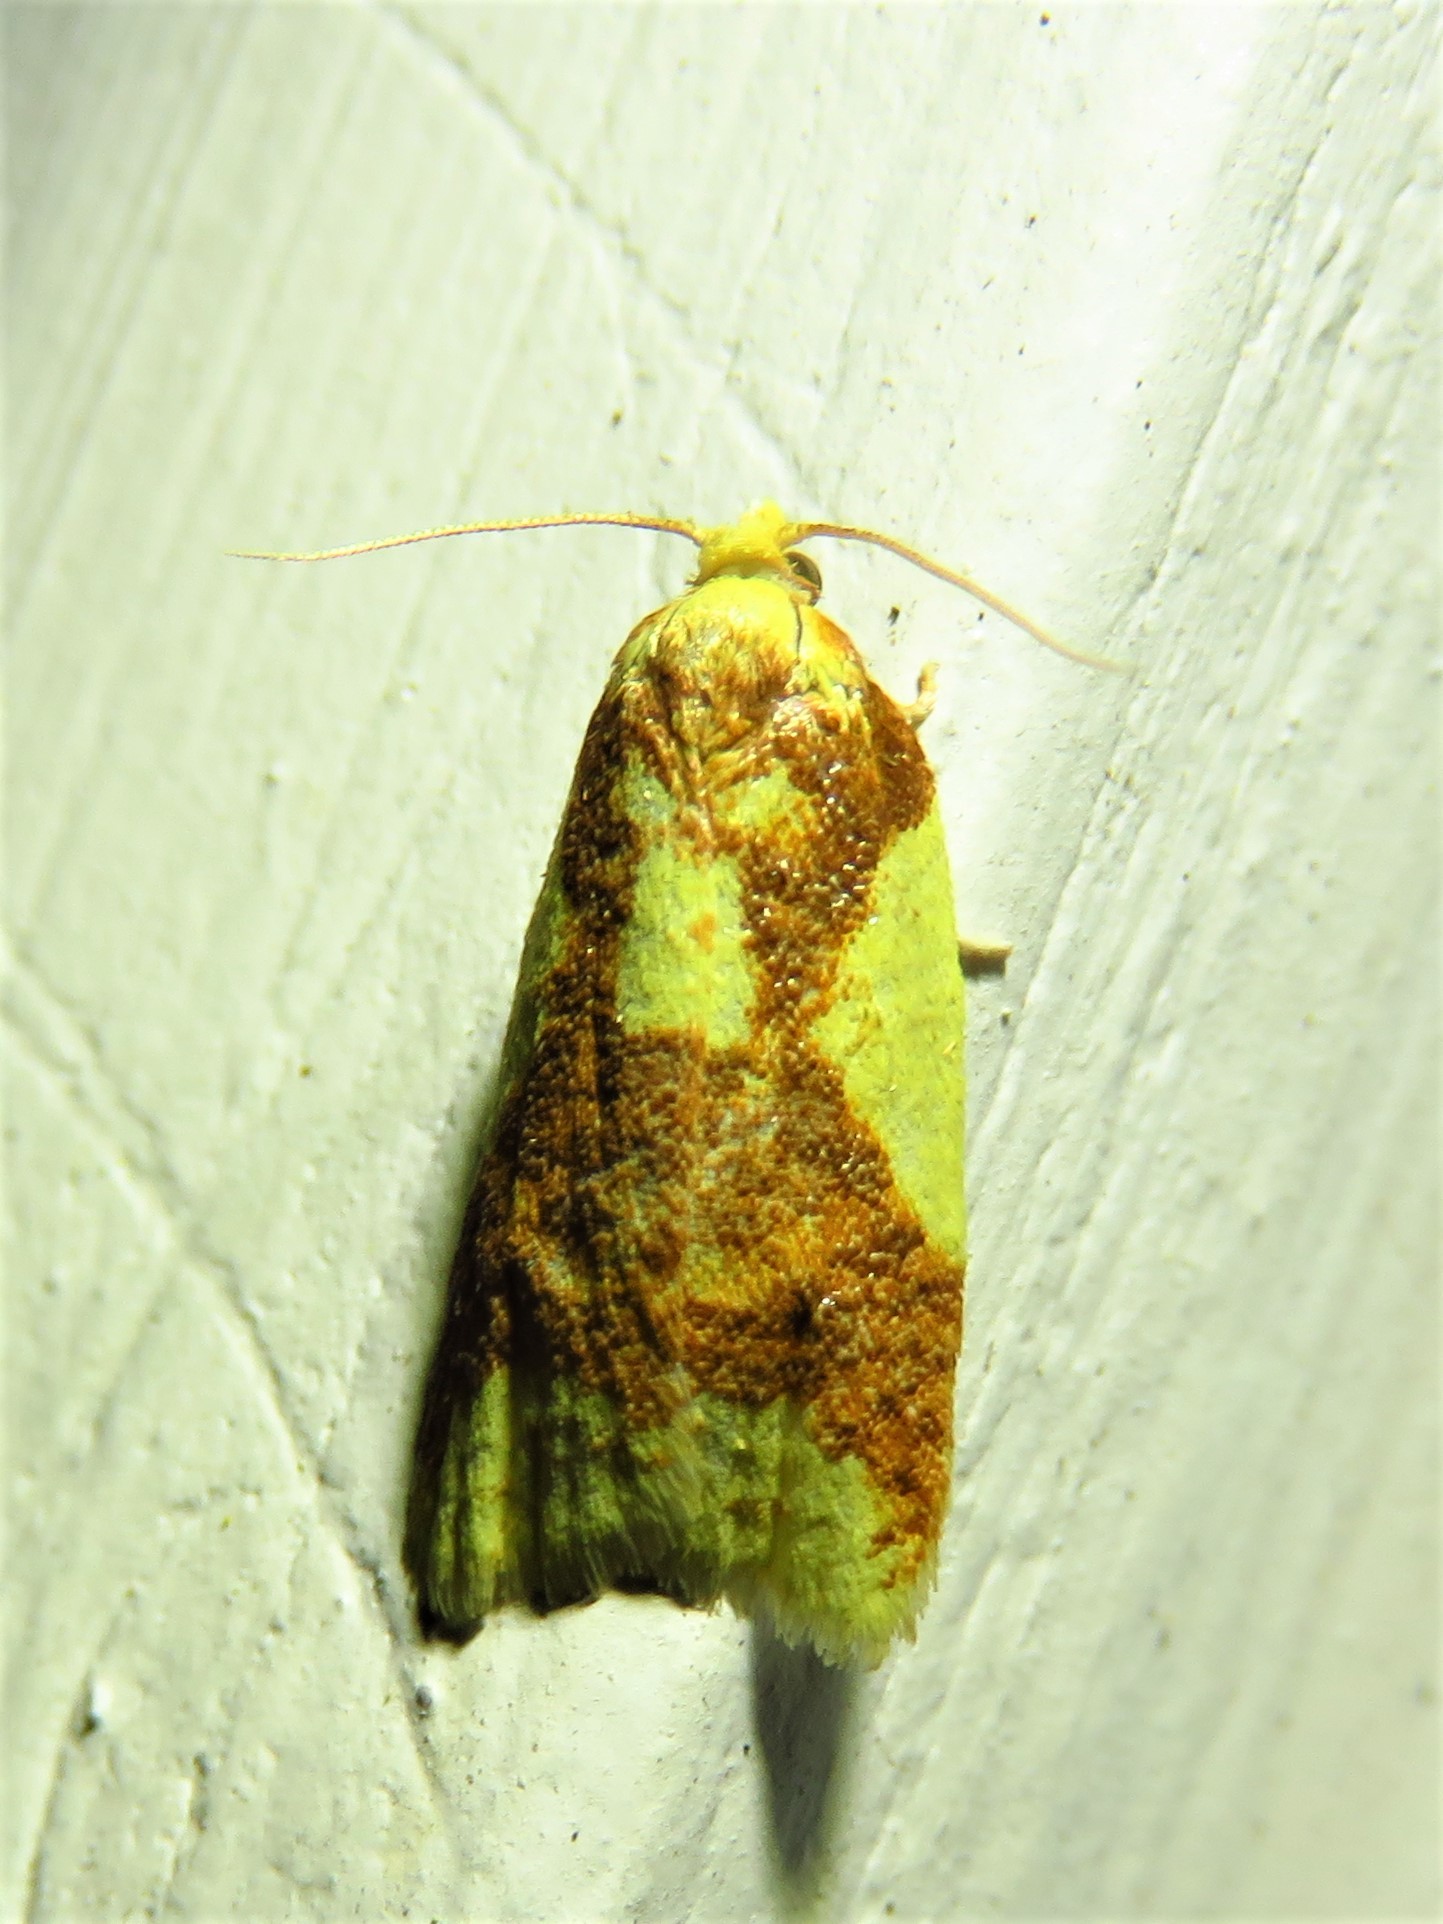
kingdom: Animalia
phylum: Arthropoda
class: Insecta
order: Lepidoptera
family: Tortricidae
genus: Sparganothis
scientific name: Sparganothis pulcherrimana
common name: Beautiful sparganothis
